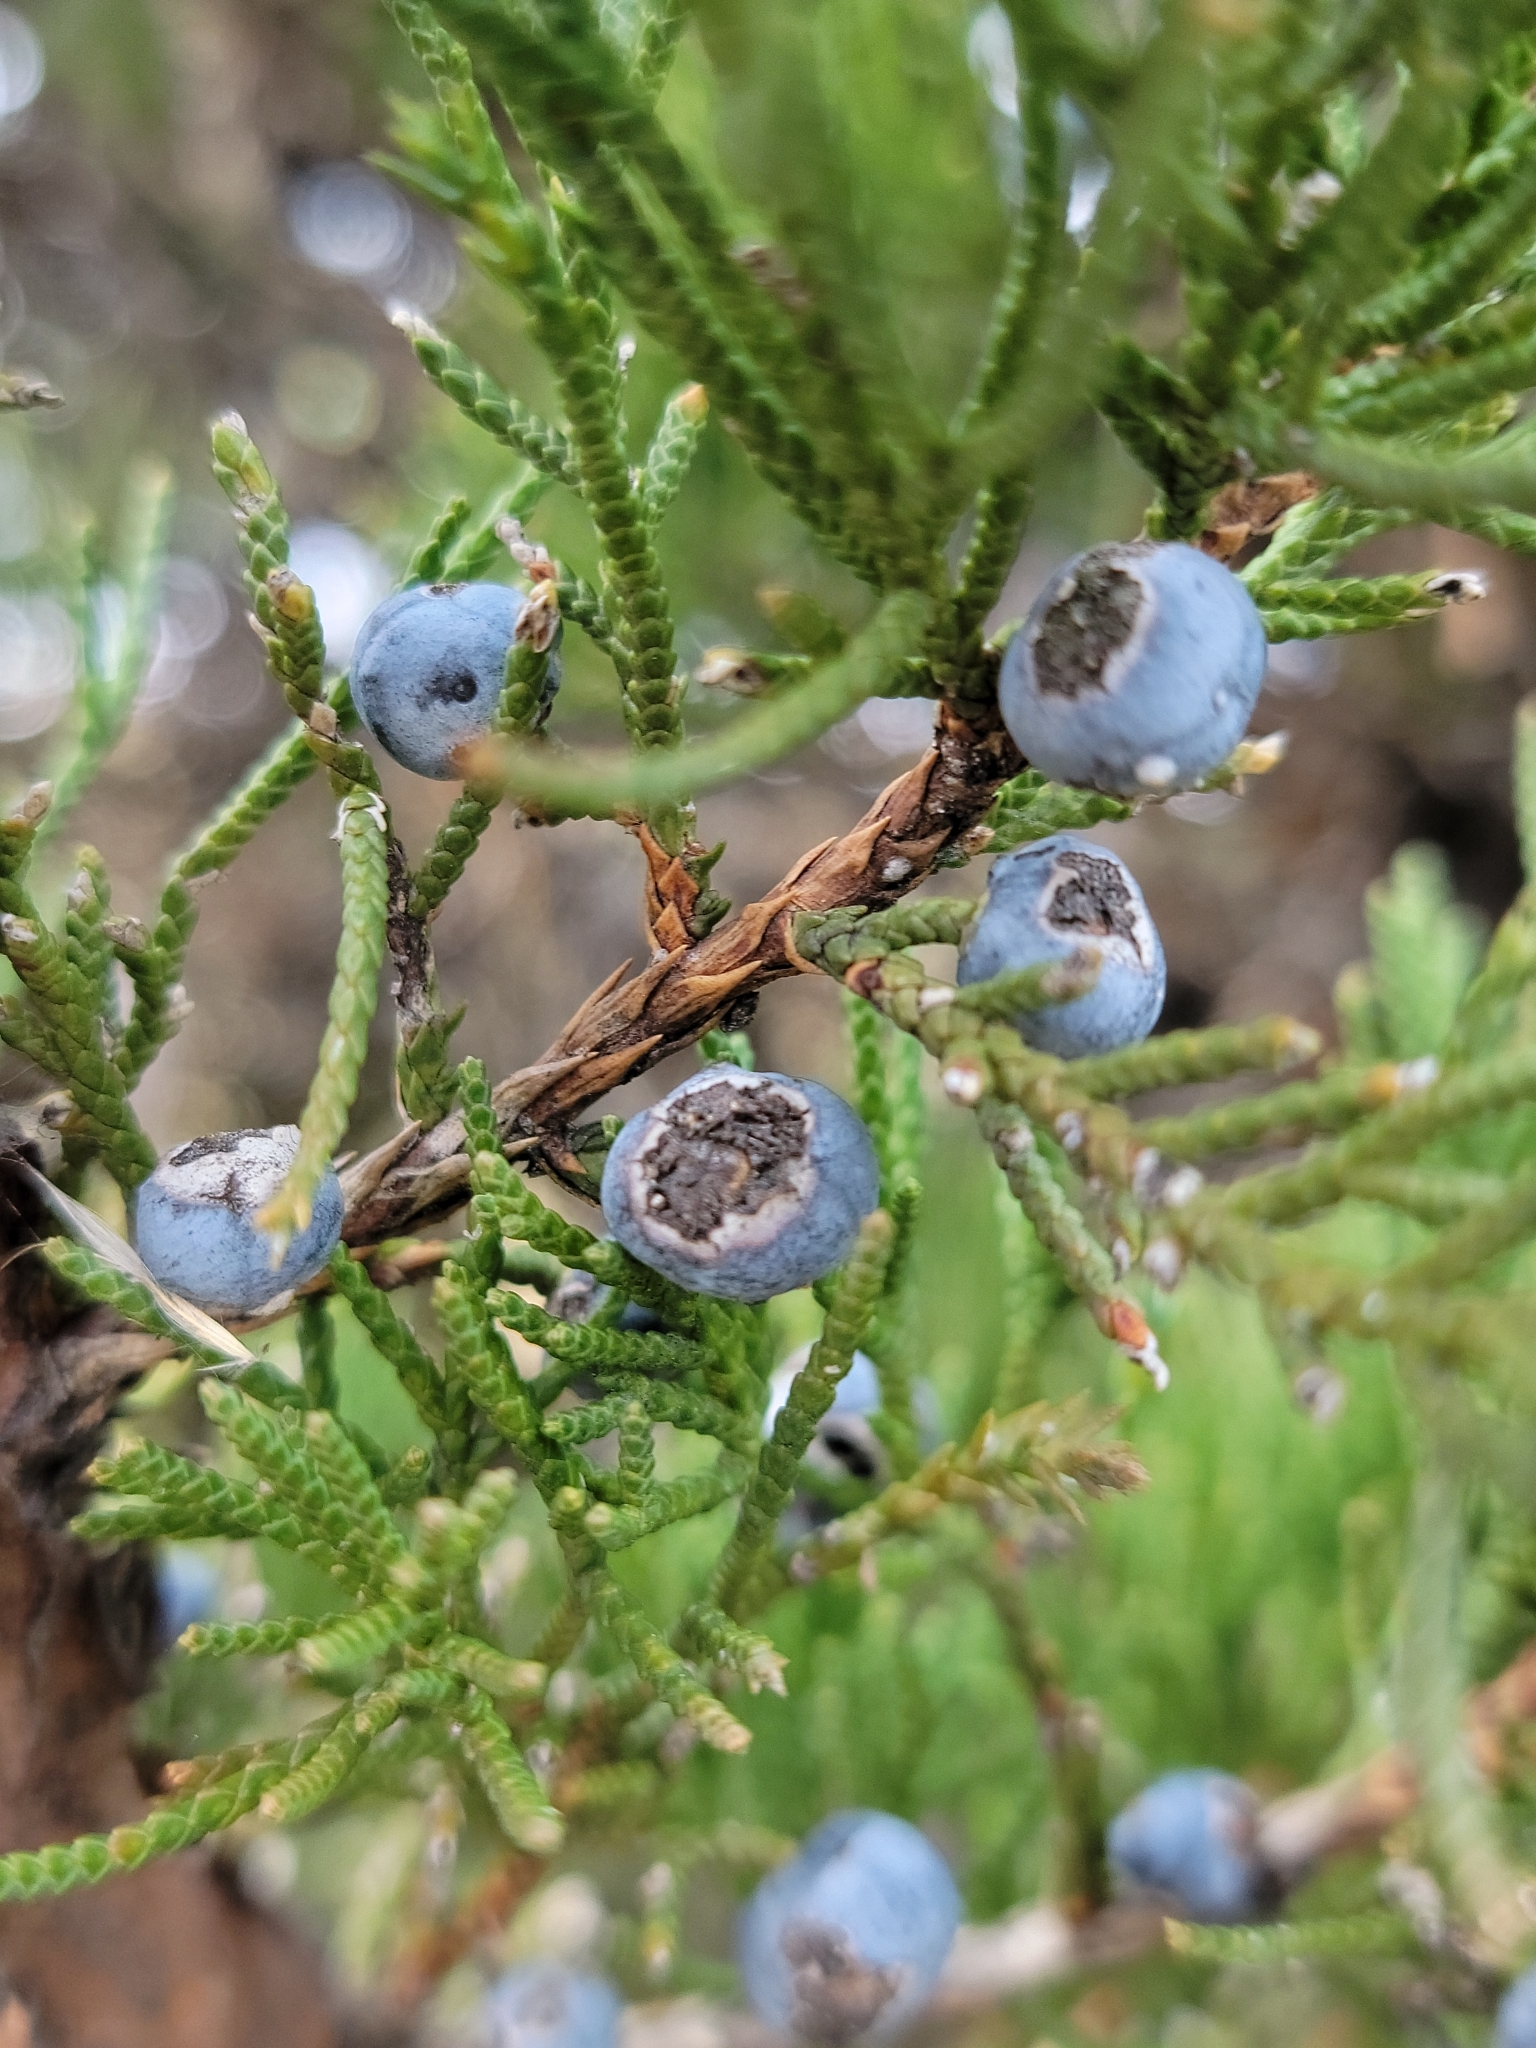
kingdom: Plantae
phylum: Tracheophyta
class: Pinopsida
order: Pinales
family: Cupressaceae
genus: Juniperus
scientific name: Juniperus virginiana
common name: Red juniper
